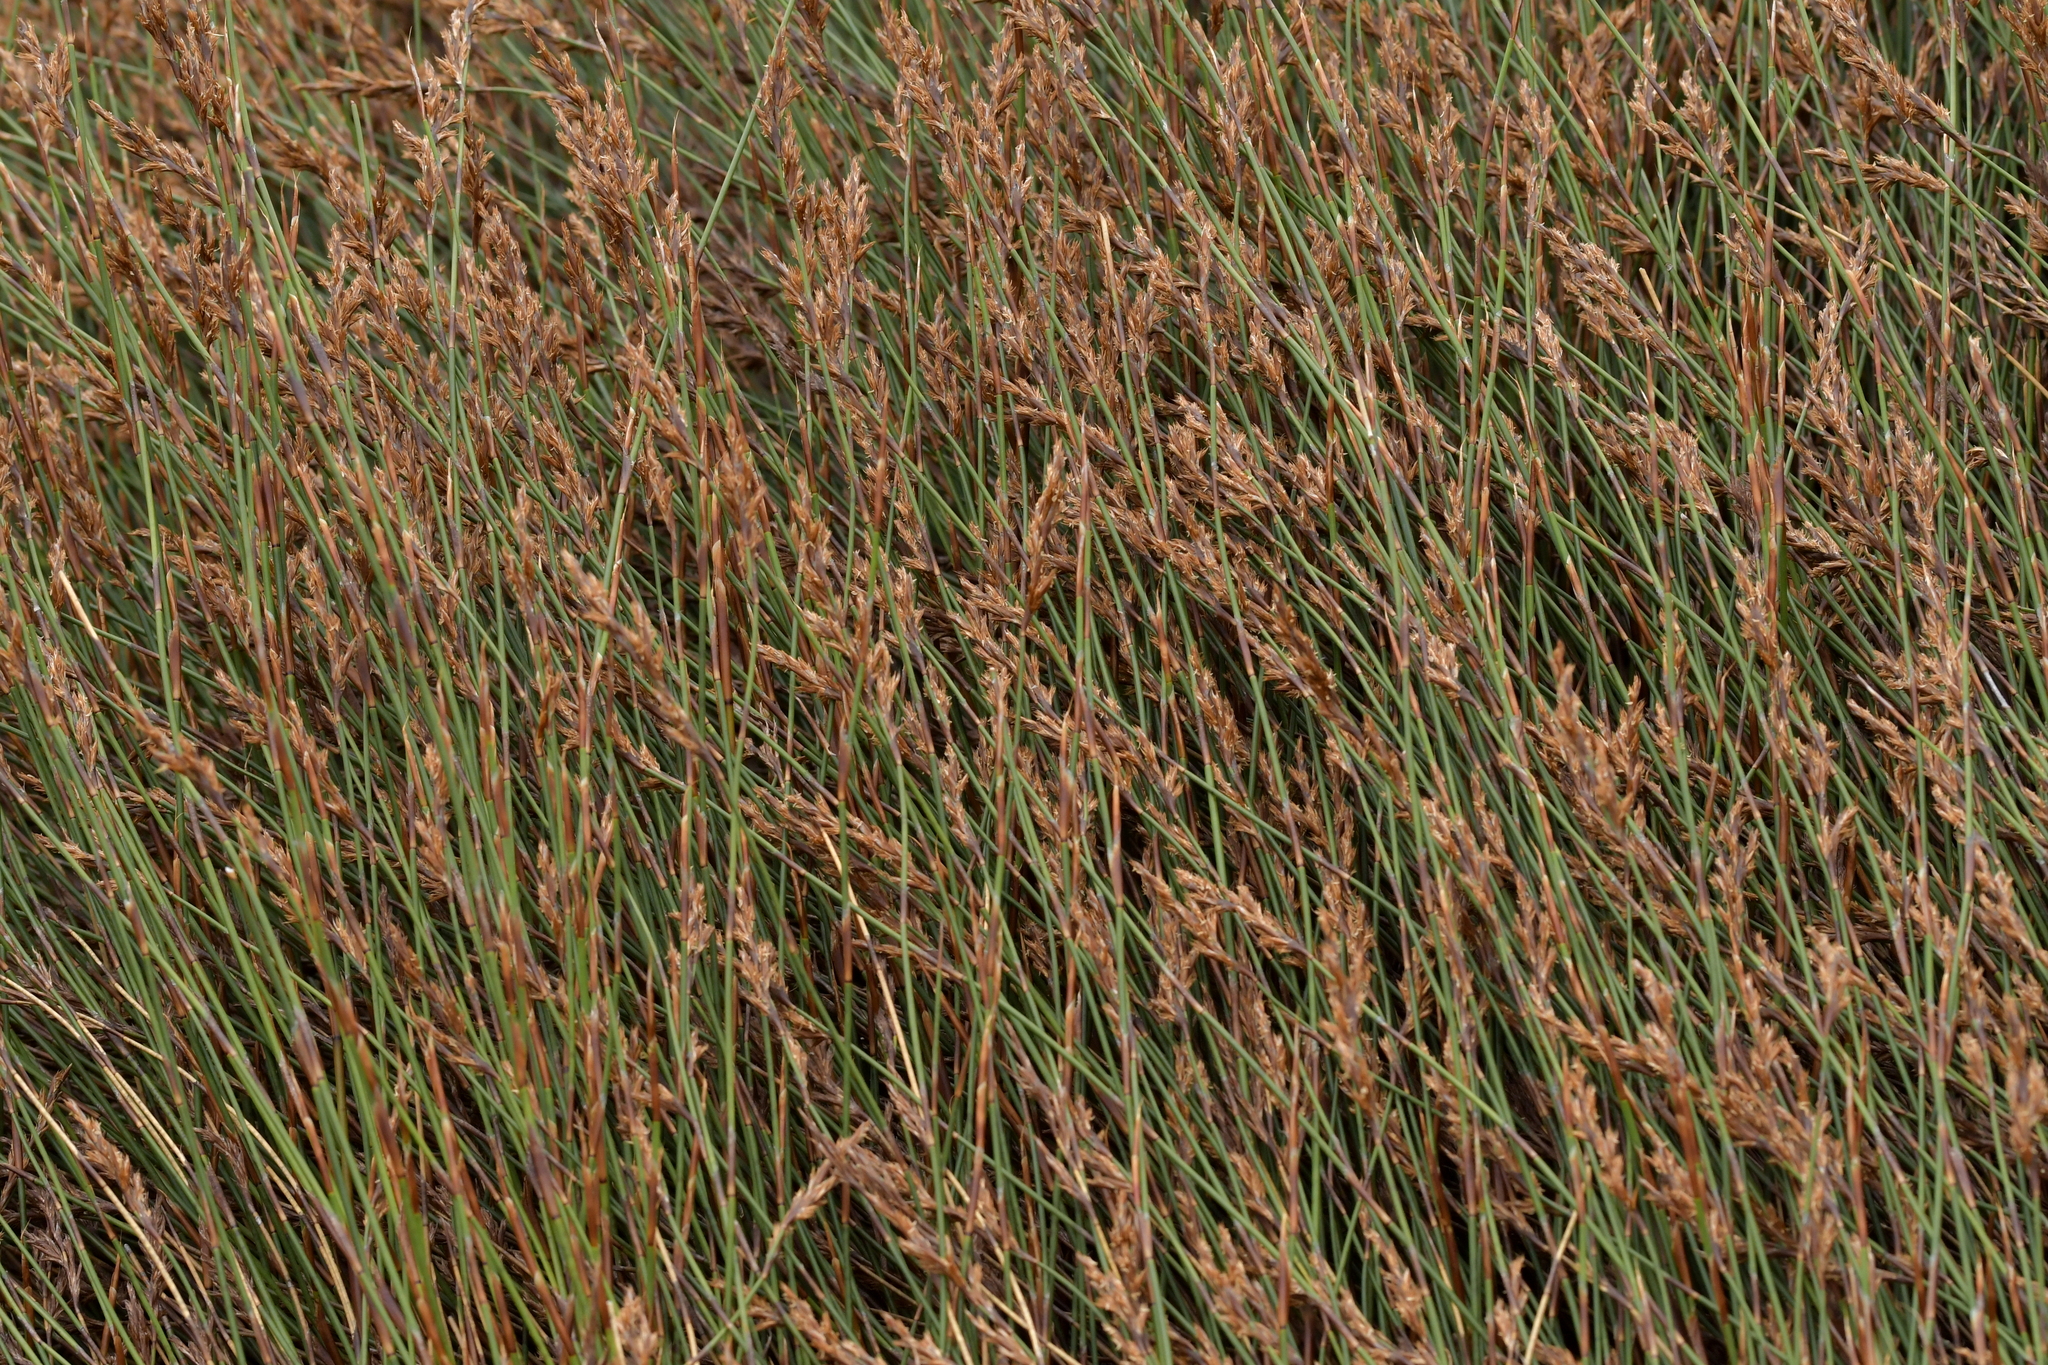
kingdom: Plantae
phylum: Tracheophyta
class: Liliopsida
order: Poales
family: Restionaceae
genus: Sporadanthus
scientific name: Sporadanthus traversii
